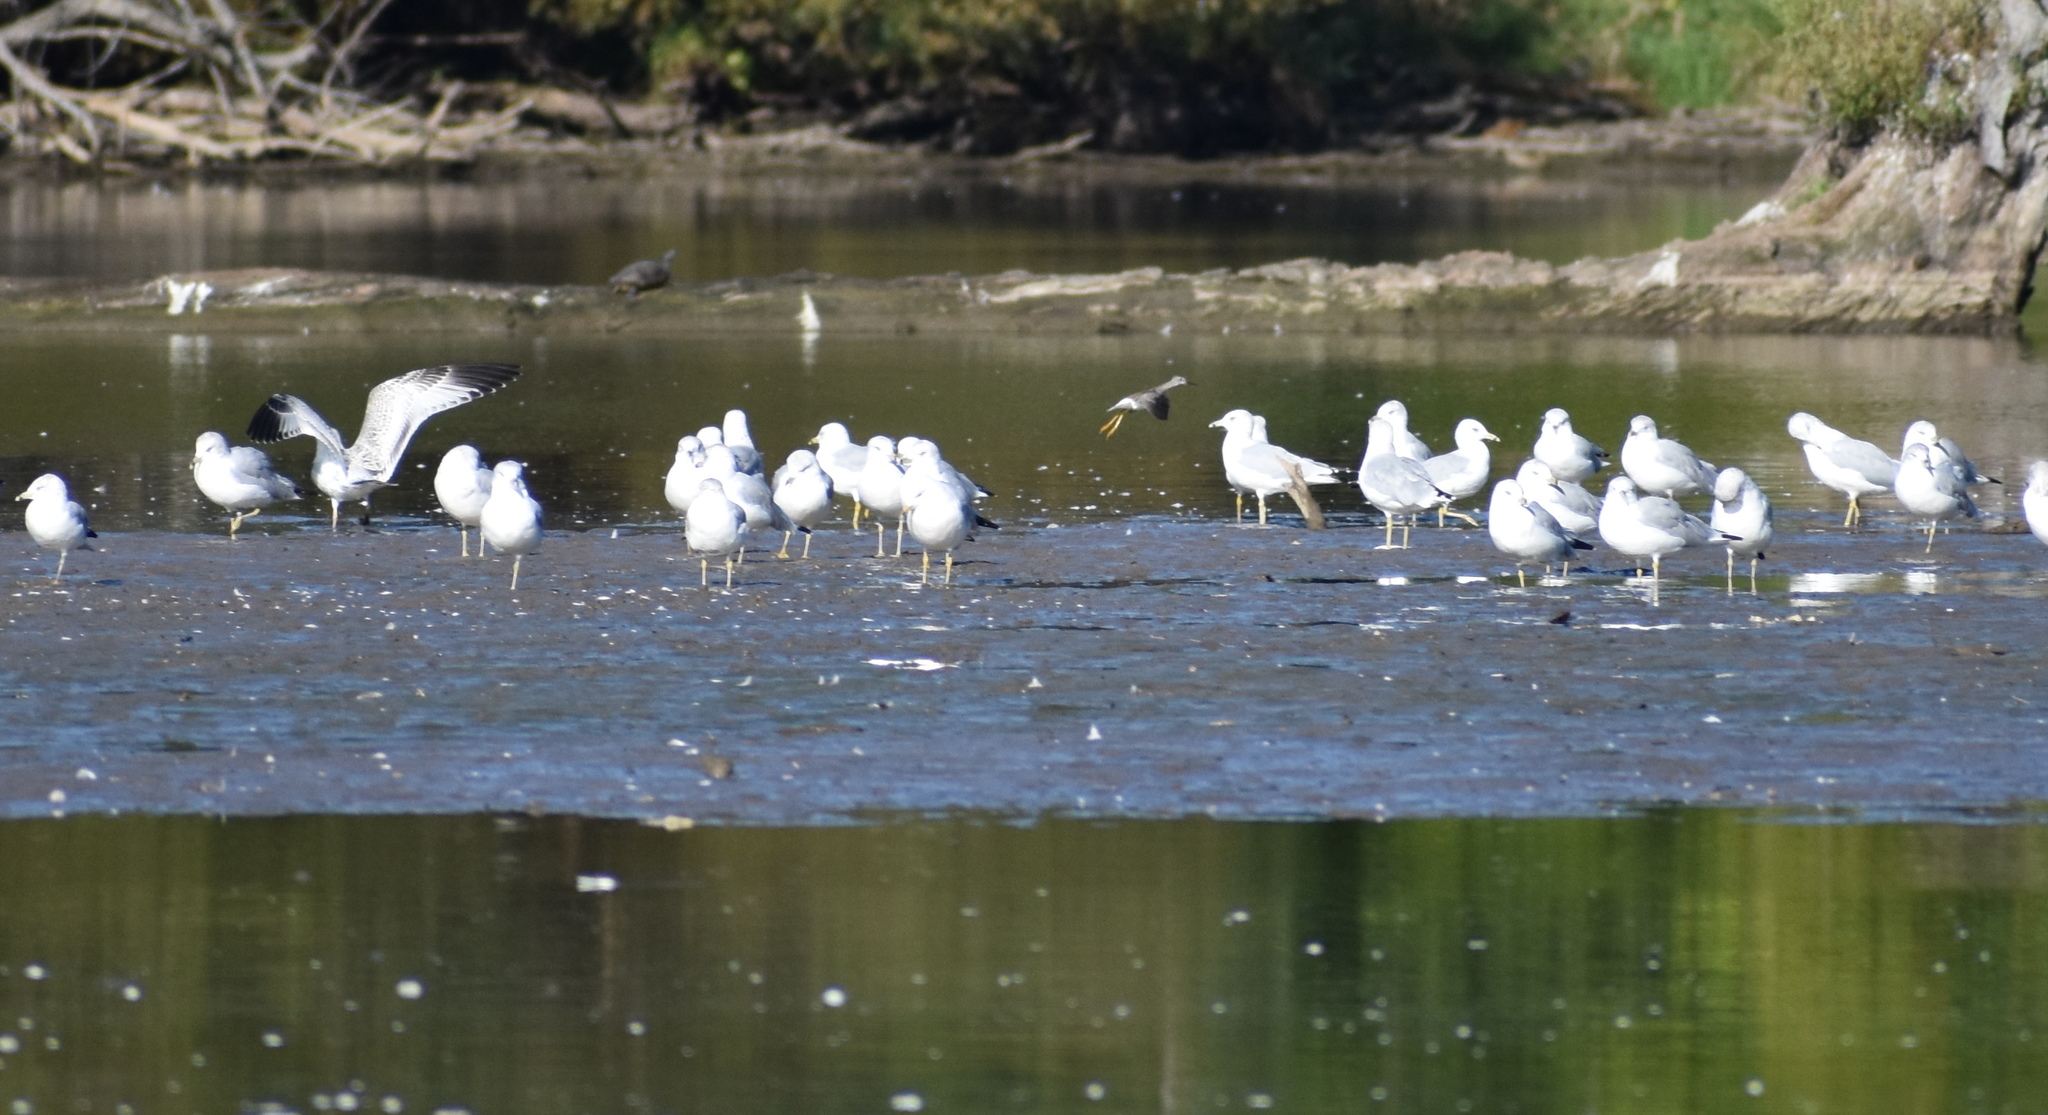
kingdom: Animalia
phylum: Chordata
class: Aves
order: Charadriiformes
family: Scolopacidae
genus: Tringa
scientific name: Tringa flavipes
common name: Lesser yellowlegs
